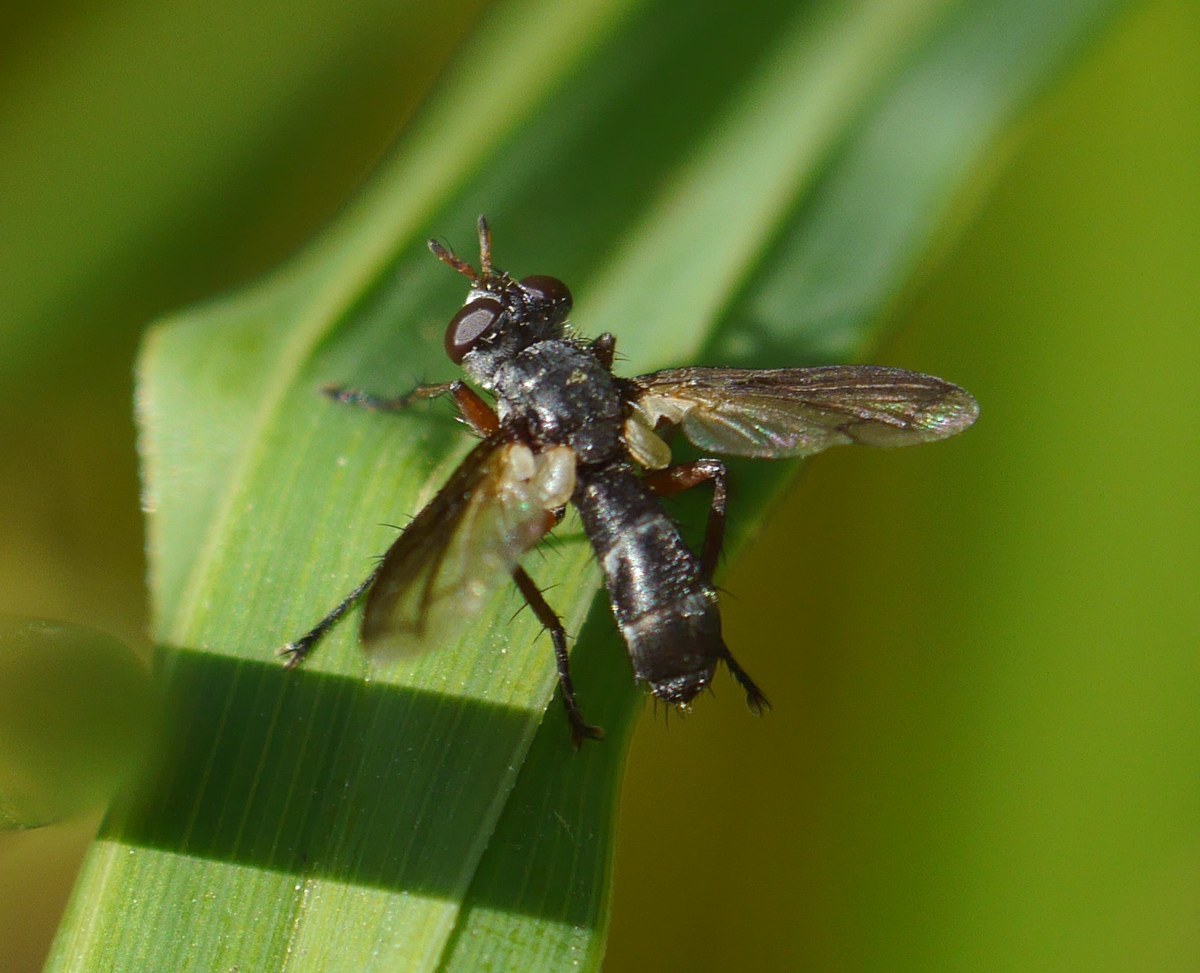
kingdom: Animalia
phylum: Arthropoda
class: Insecta
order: Diptera
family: Tachinidae
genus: Cylindromyia
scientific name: Cylindromyia rufipes
